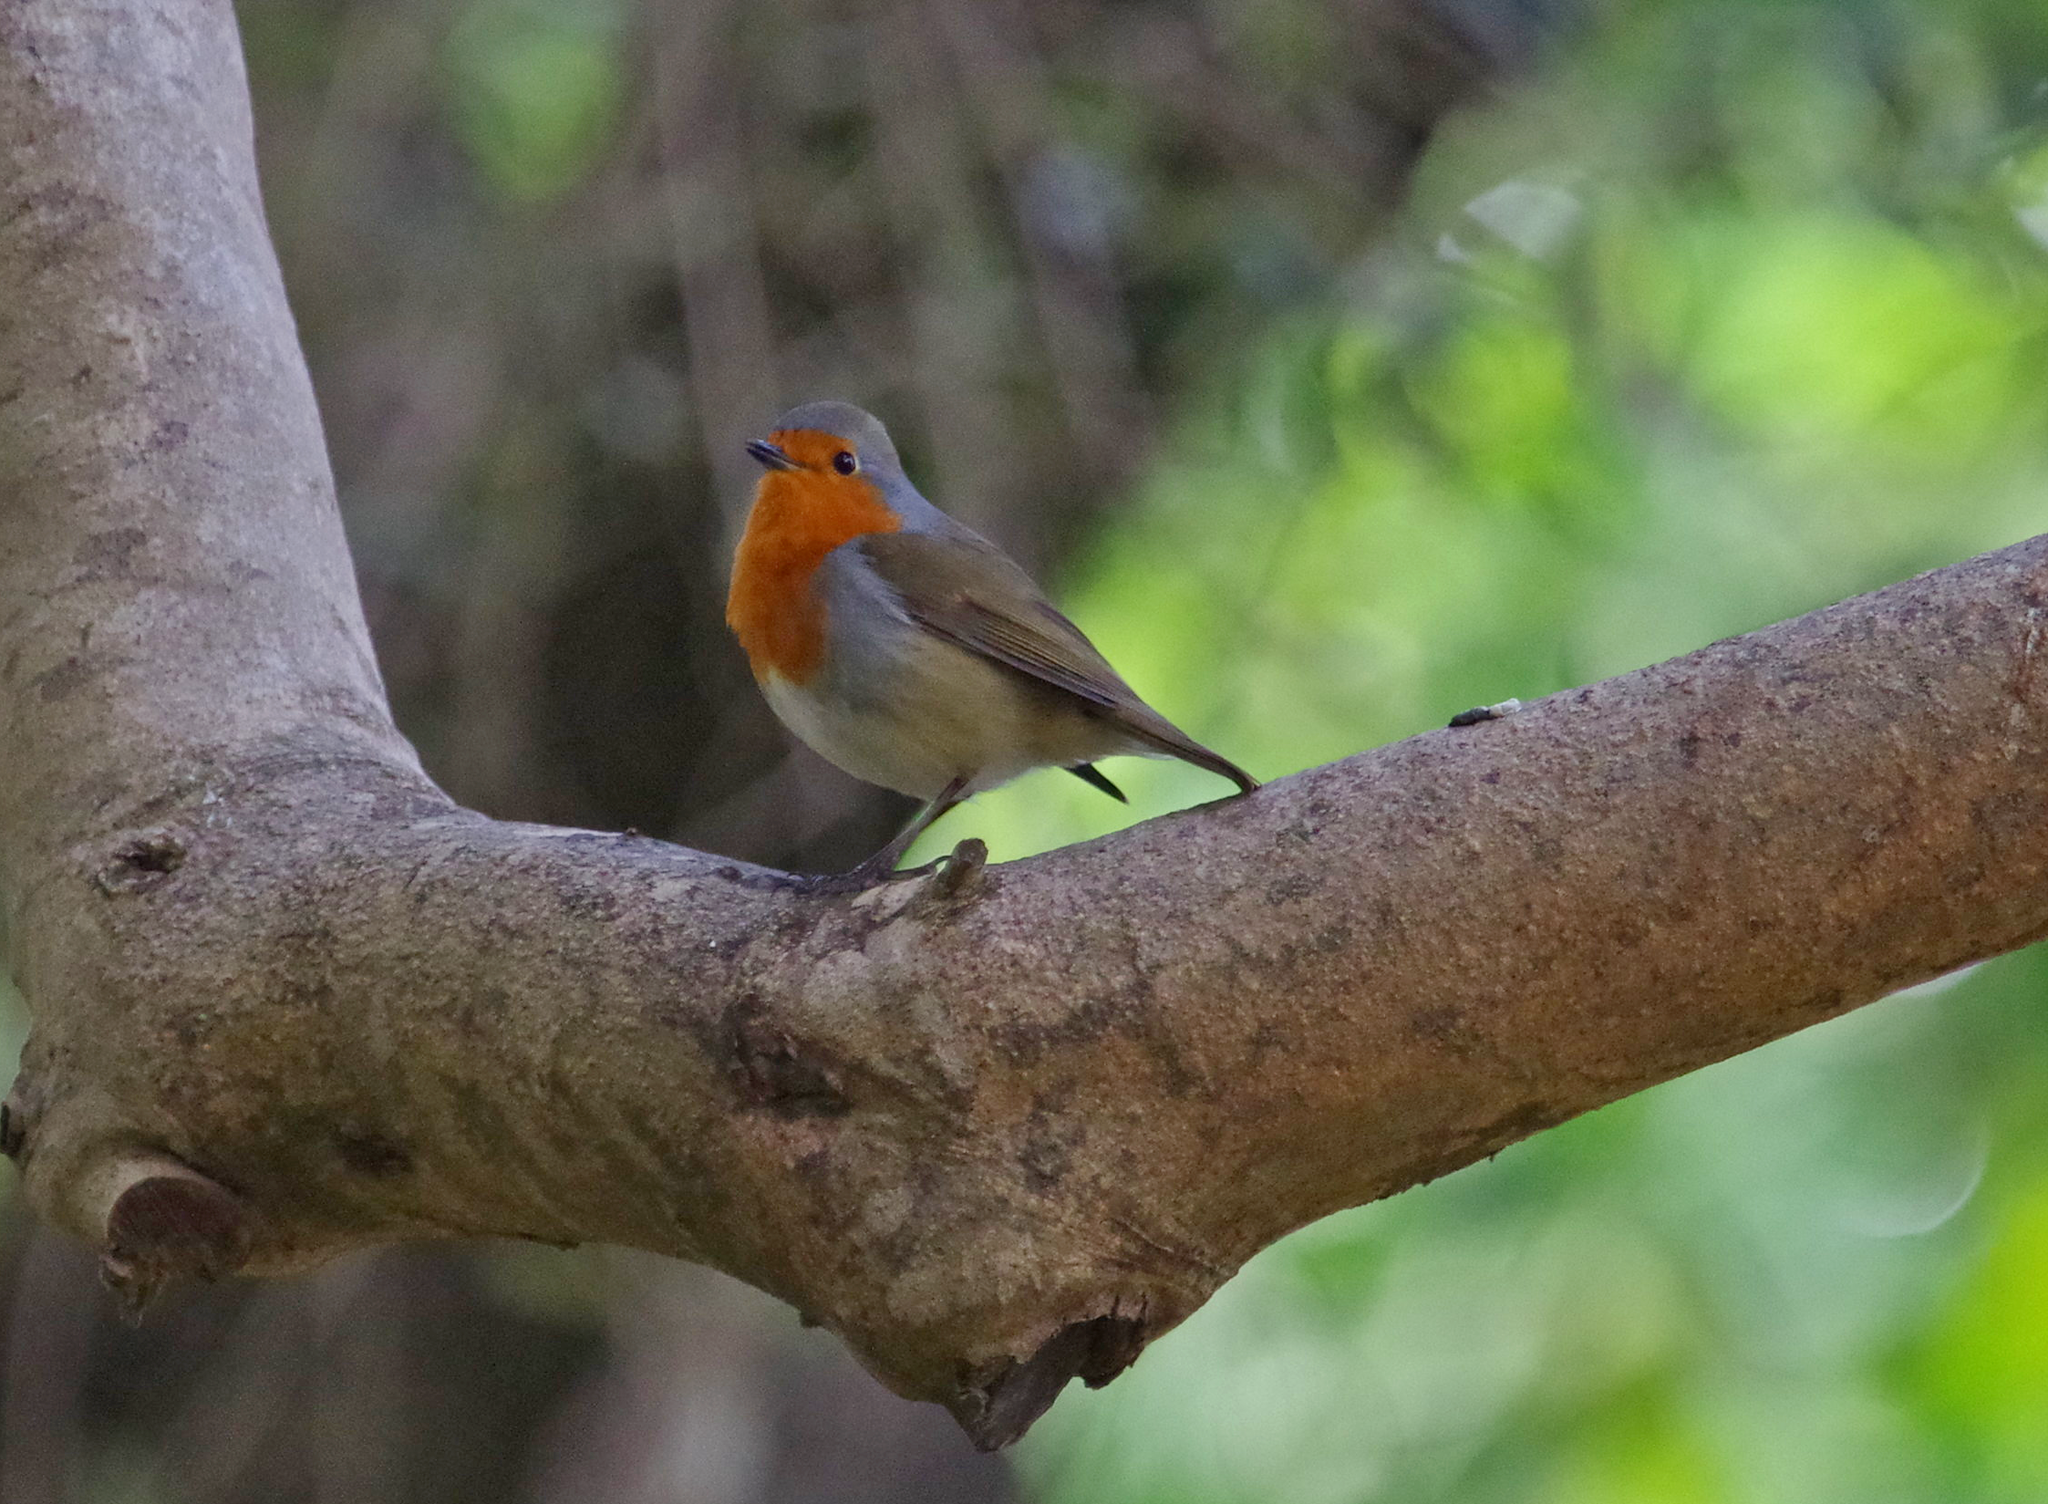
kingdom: Animalia
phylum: Chordata
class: Aves
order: Passeriformes
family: Muscicapidae
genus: Erithacus
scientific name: Erithacus rubecula
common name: European robin
